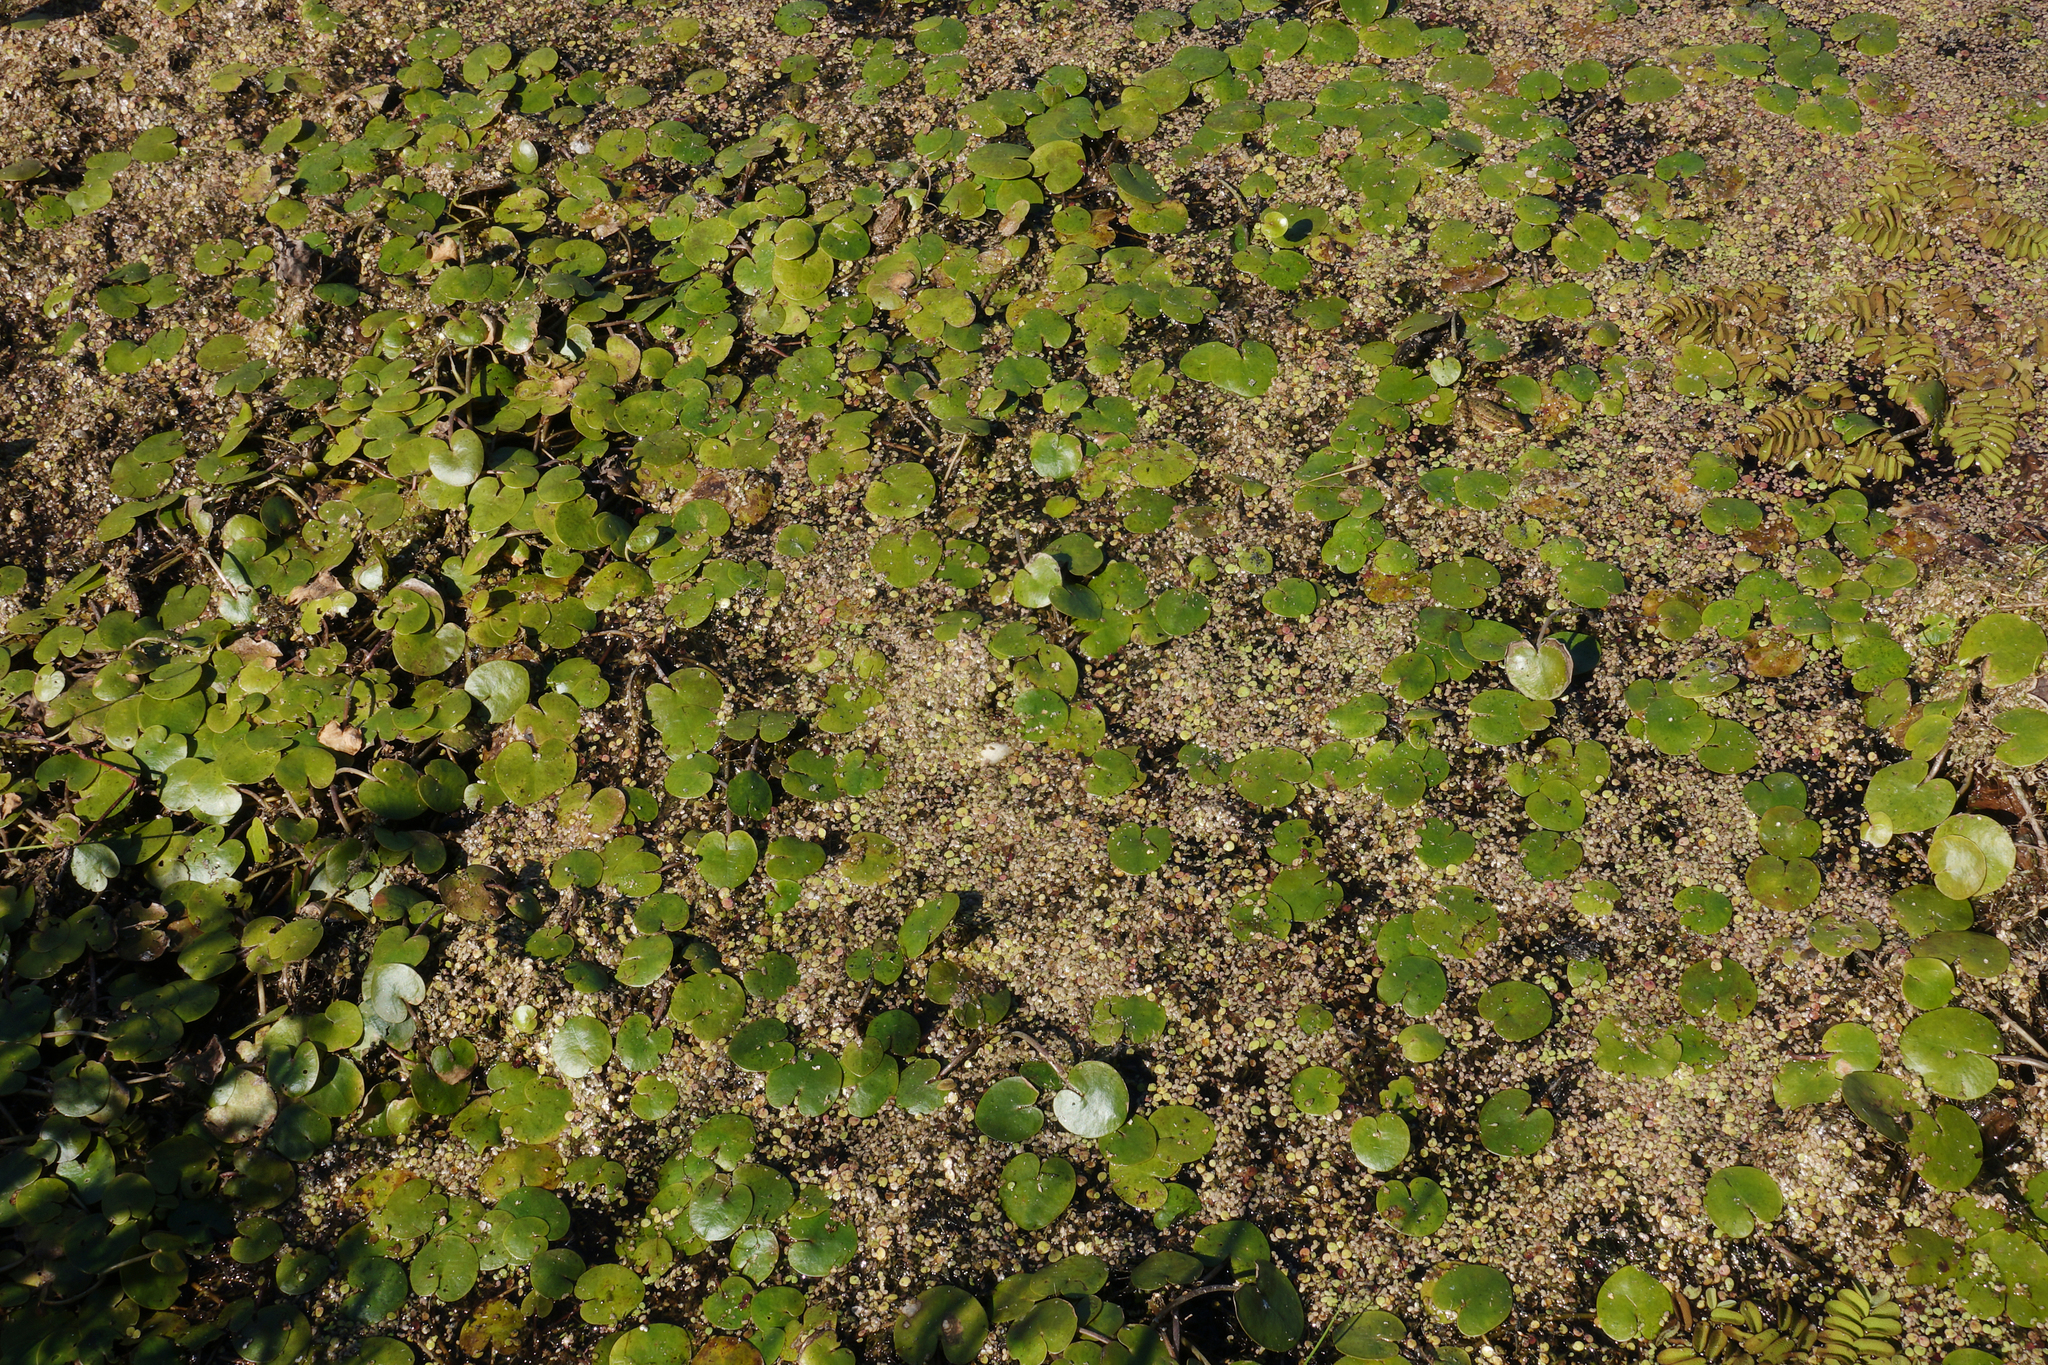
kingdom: Plantae
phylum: Tracheophyta
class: Liliopsida
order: Alismatales
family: Hydrocharitaceae
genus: Hydrocharis
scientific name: Hydrocharis morsus-ranae
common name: Frogbit
